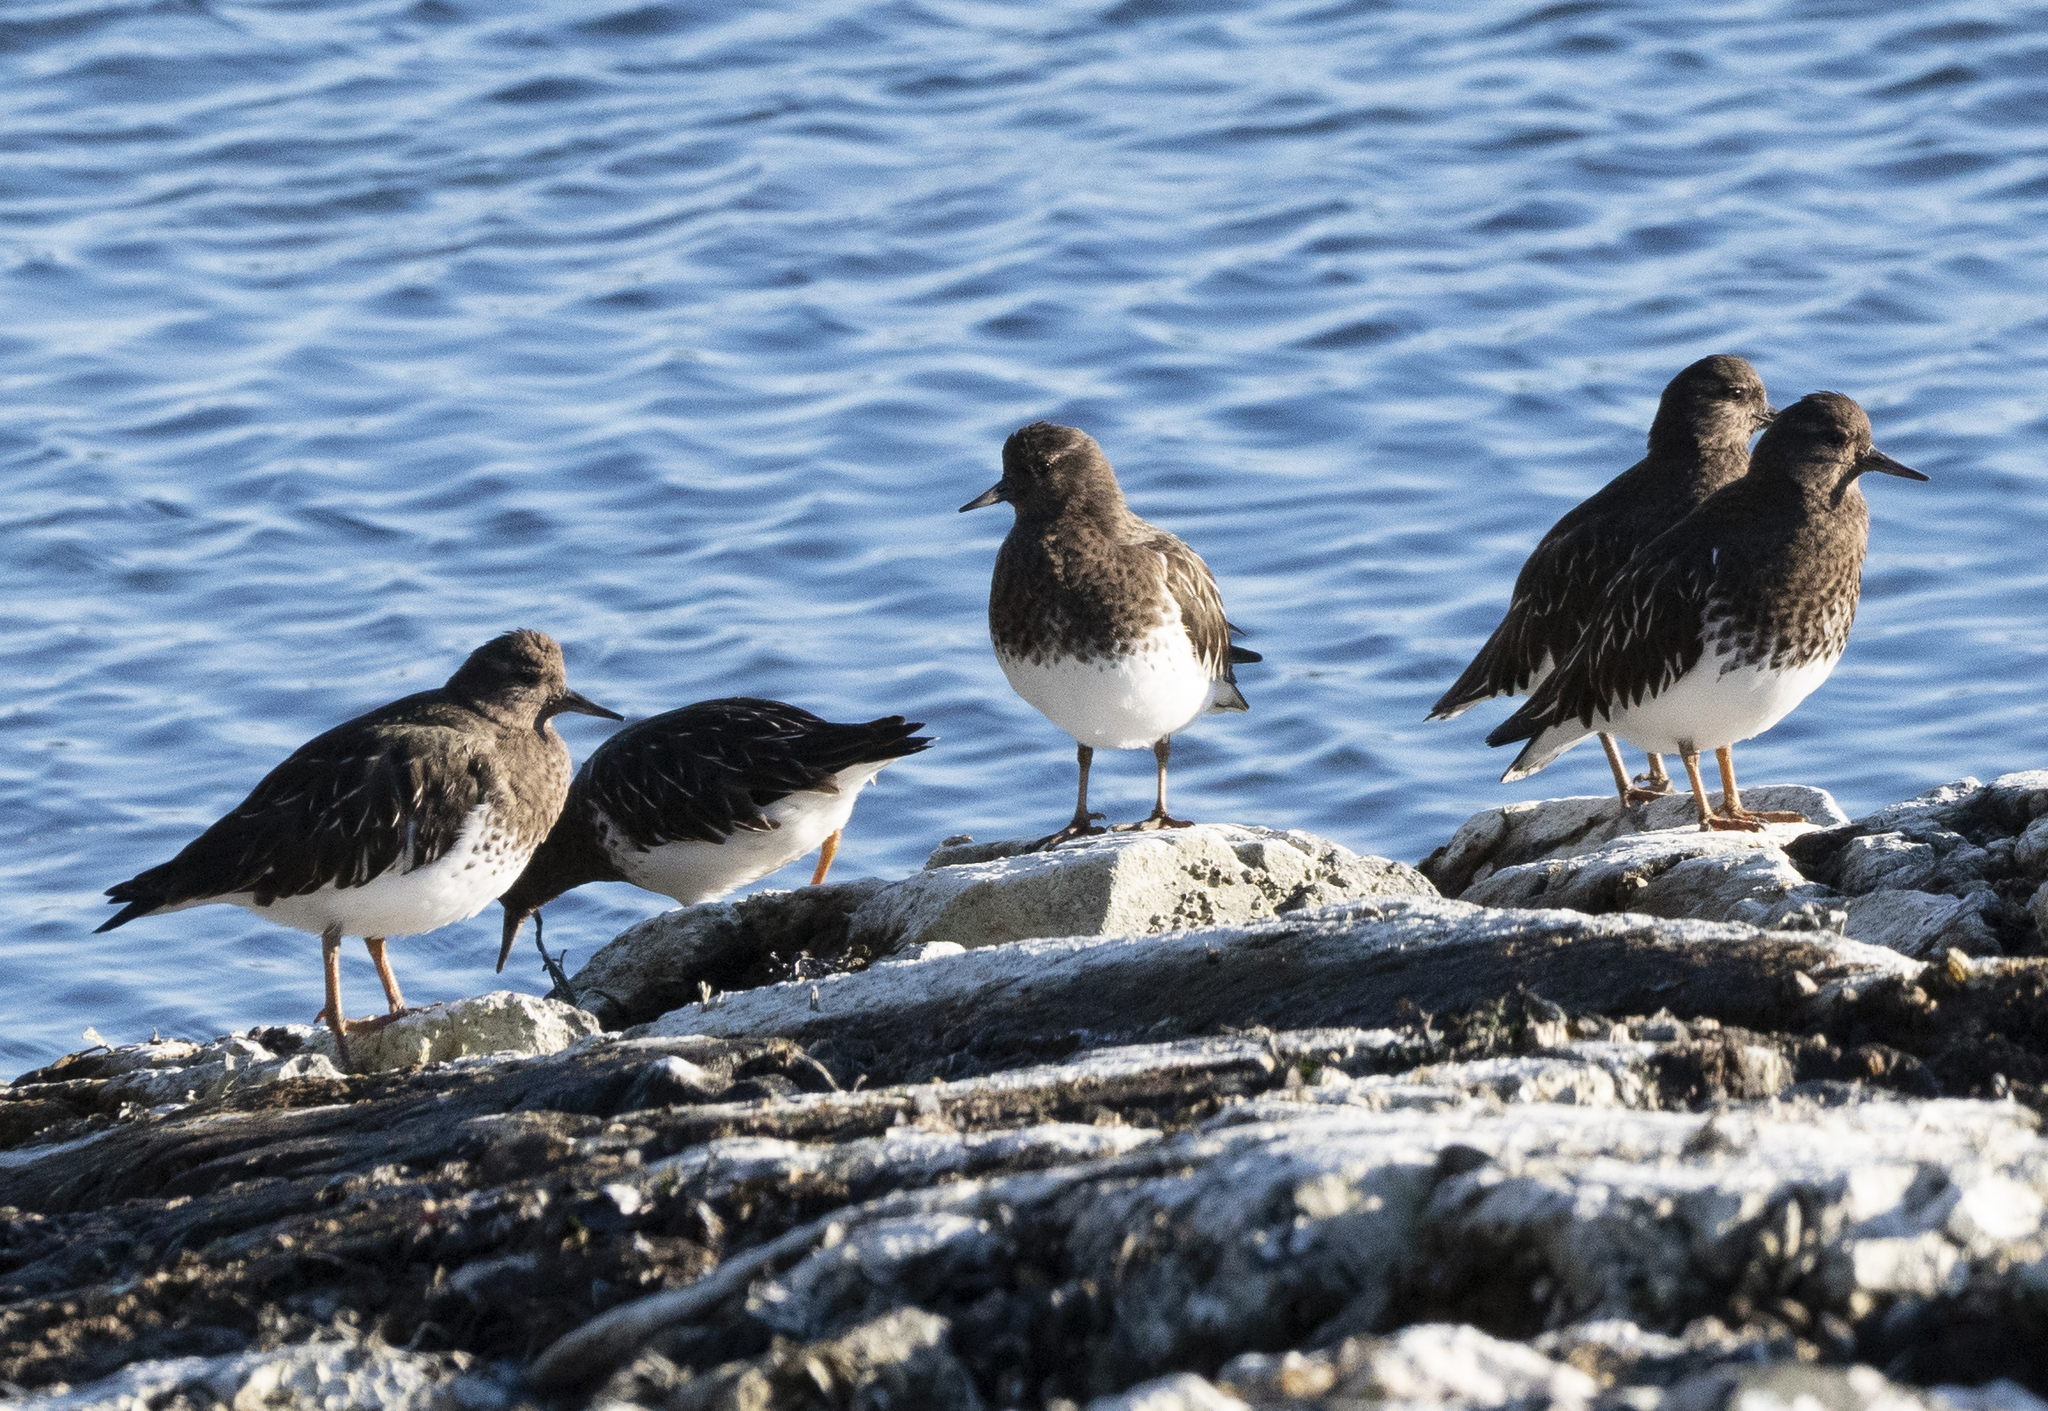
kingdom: Animalia
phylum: Chordata
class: Aves
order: Charadriiformes
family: Scolopacidae
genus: Arenaria
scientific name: Arenaria melanocephala
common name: Black turnstone
